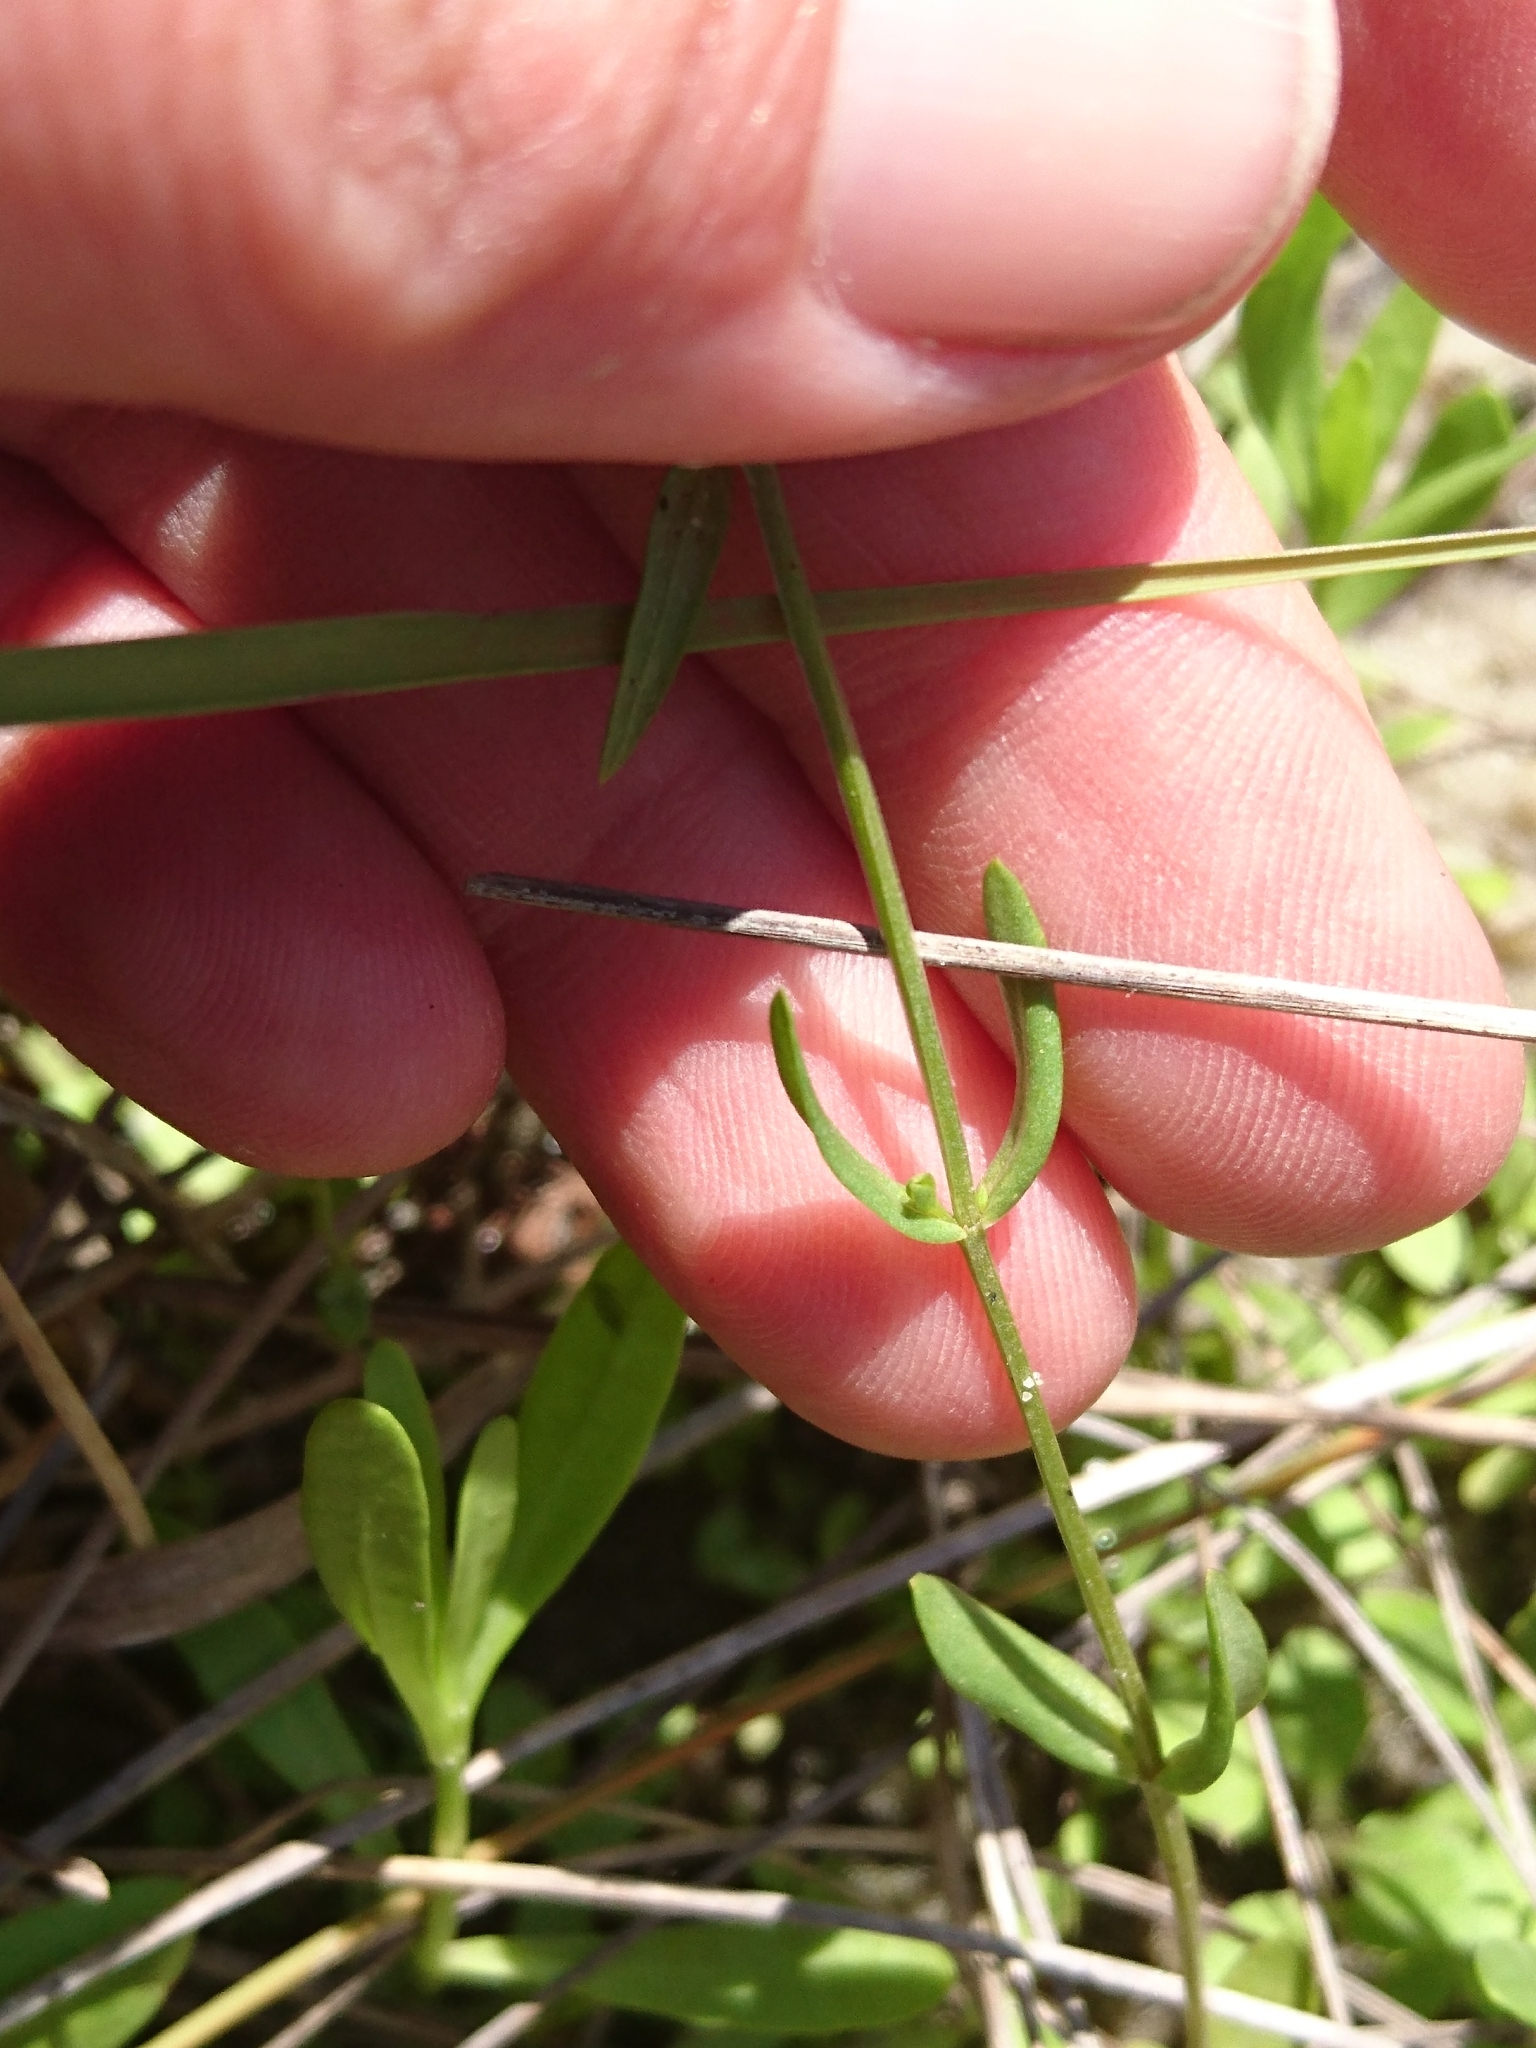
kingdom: Plantae
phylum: Tracheophyta
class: Magnoliopsida
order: Gentianales
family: Gentianaceae
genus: Centaurium
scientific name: Centaurium pulchellum
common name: Lesser centaury
